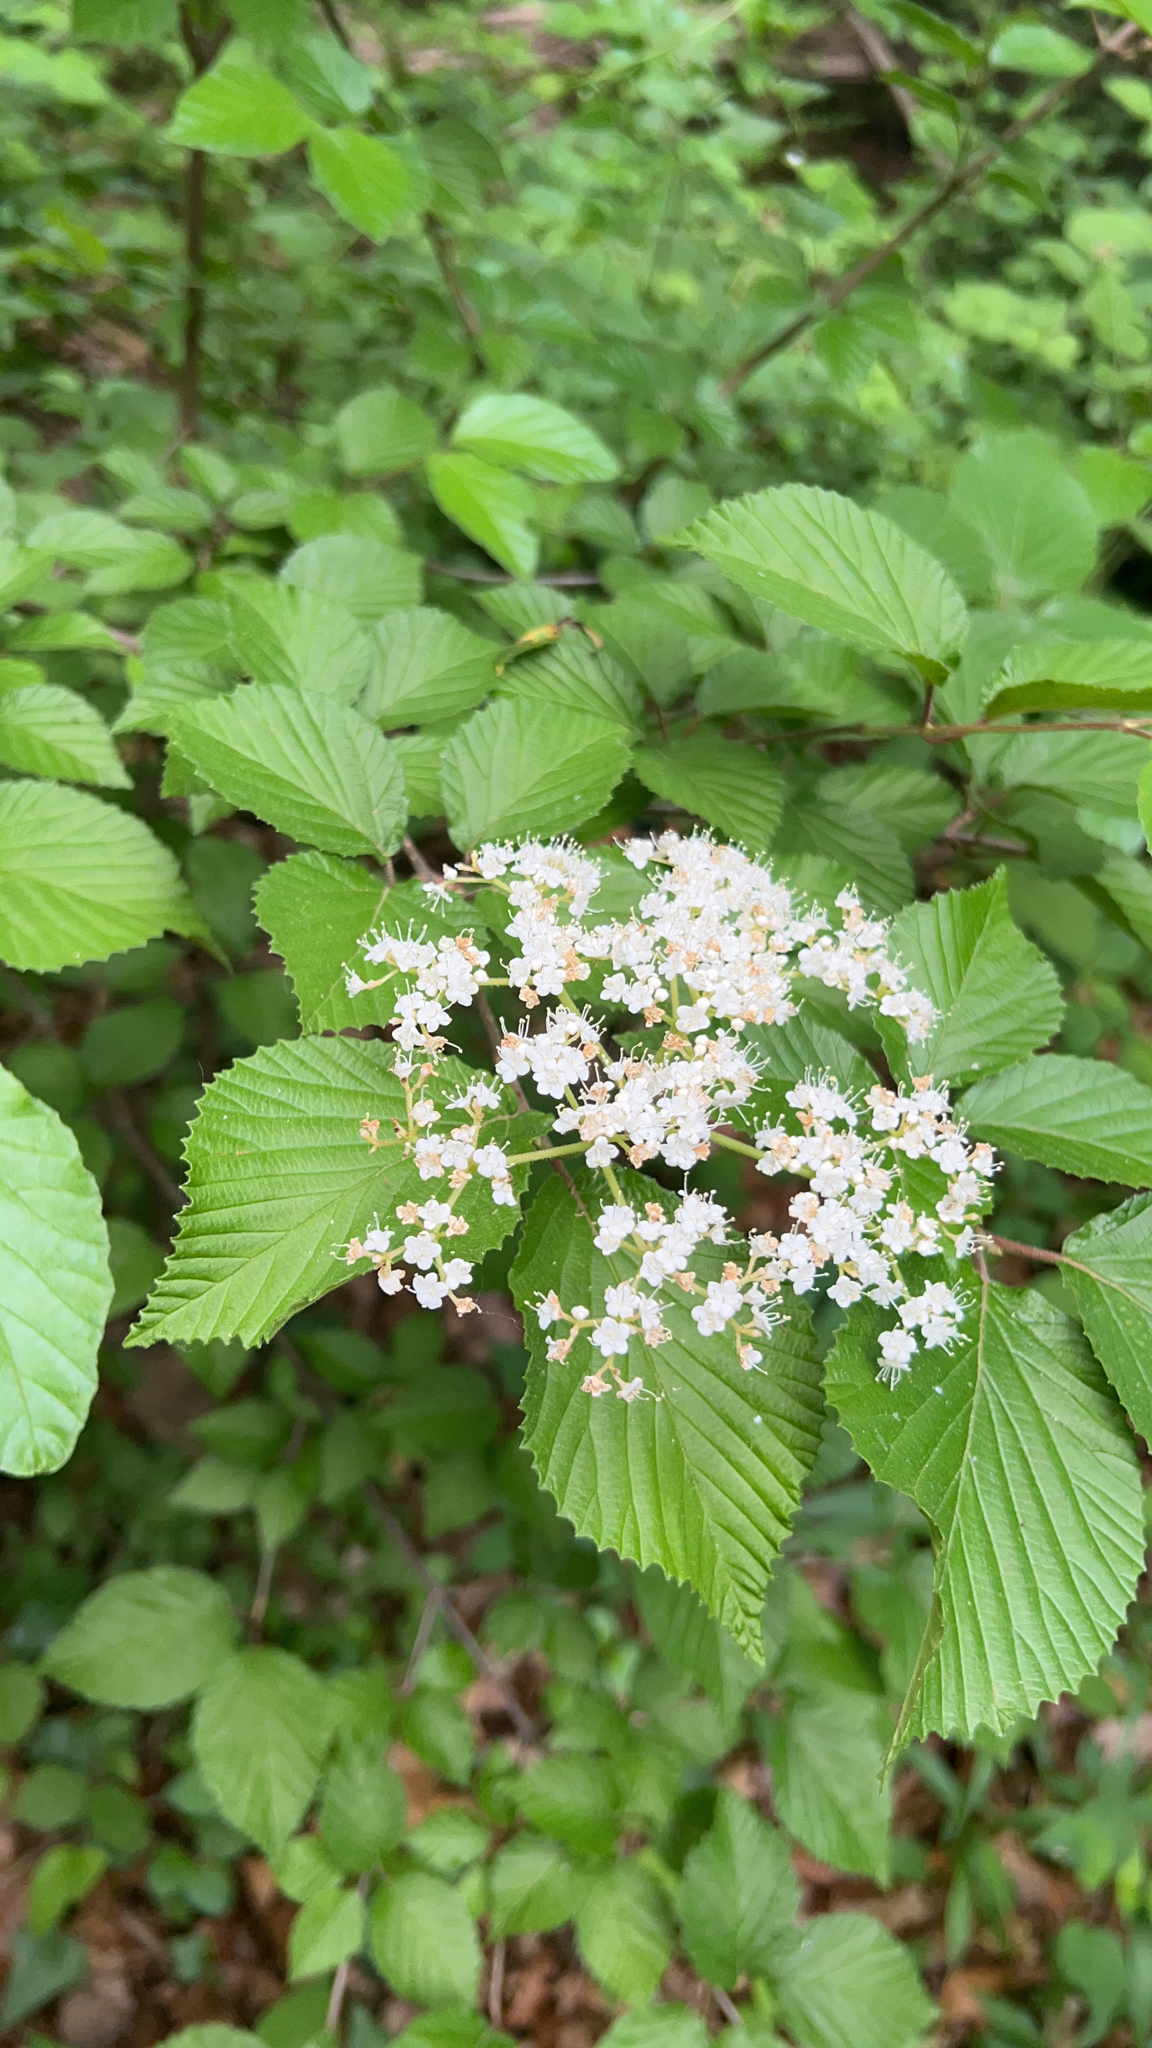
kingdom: Plantae
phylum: Tracheophyta
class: Magnoliopsida
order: Dipsacales
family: Viburnaceae
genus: Viburnum
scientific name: Viburnum dilatatum
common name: Linden arrowwood
